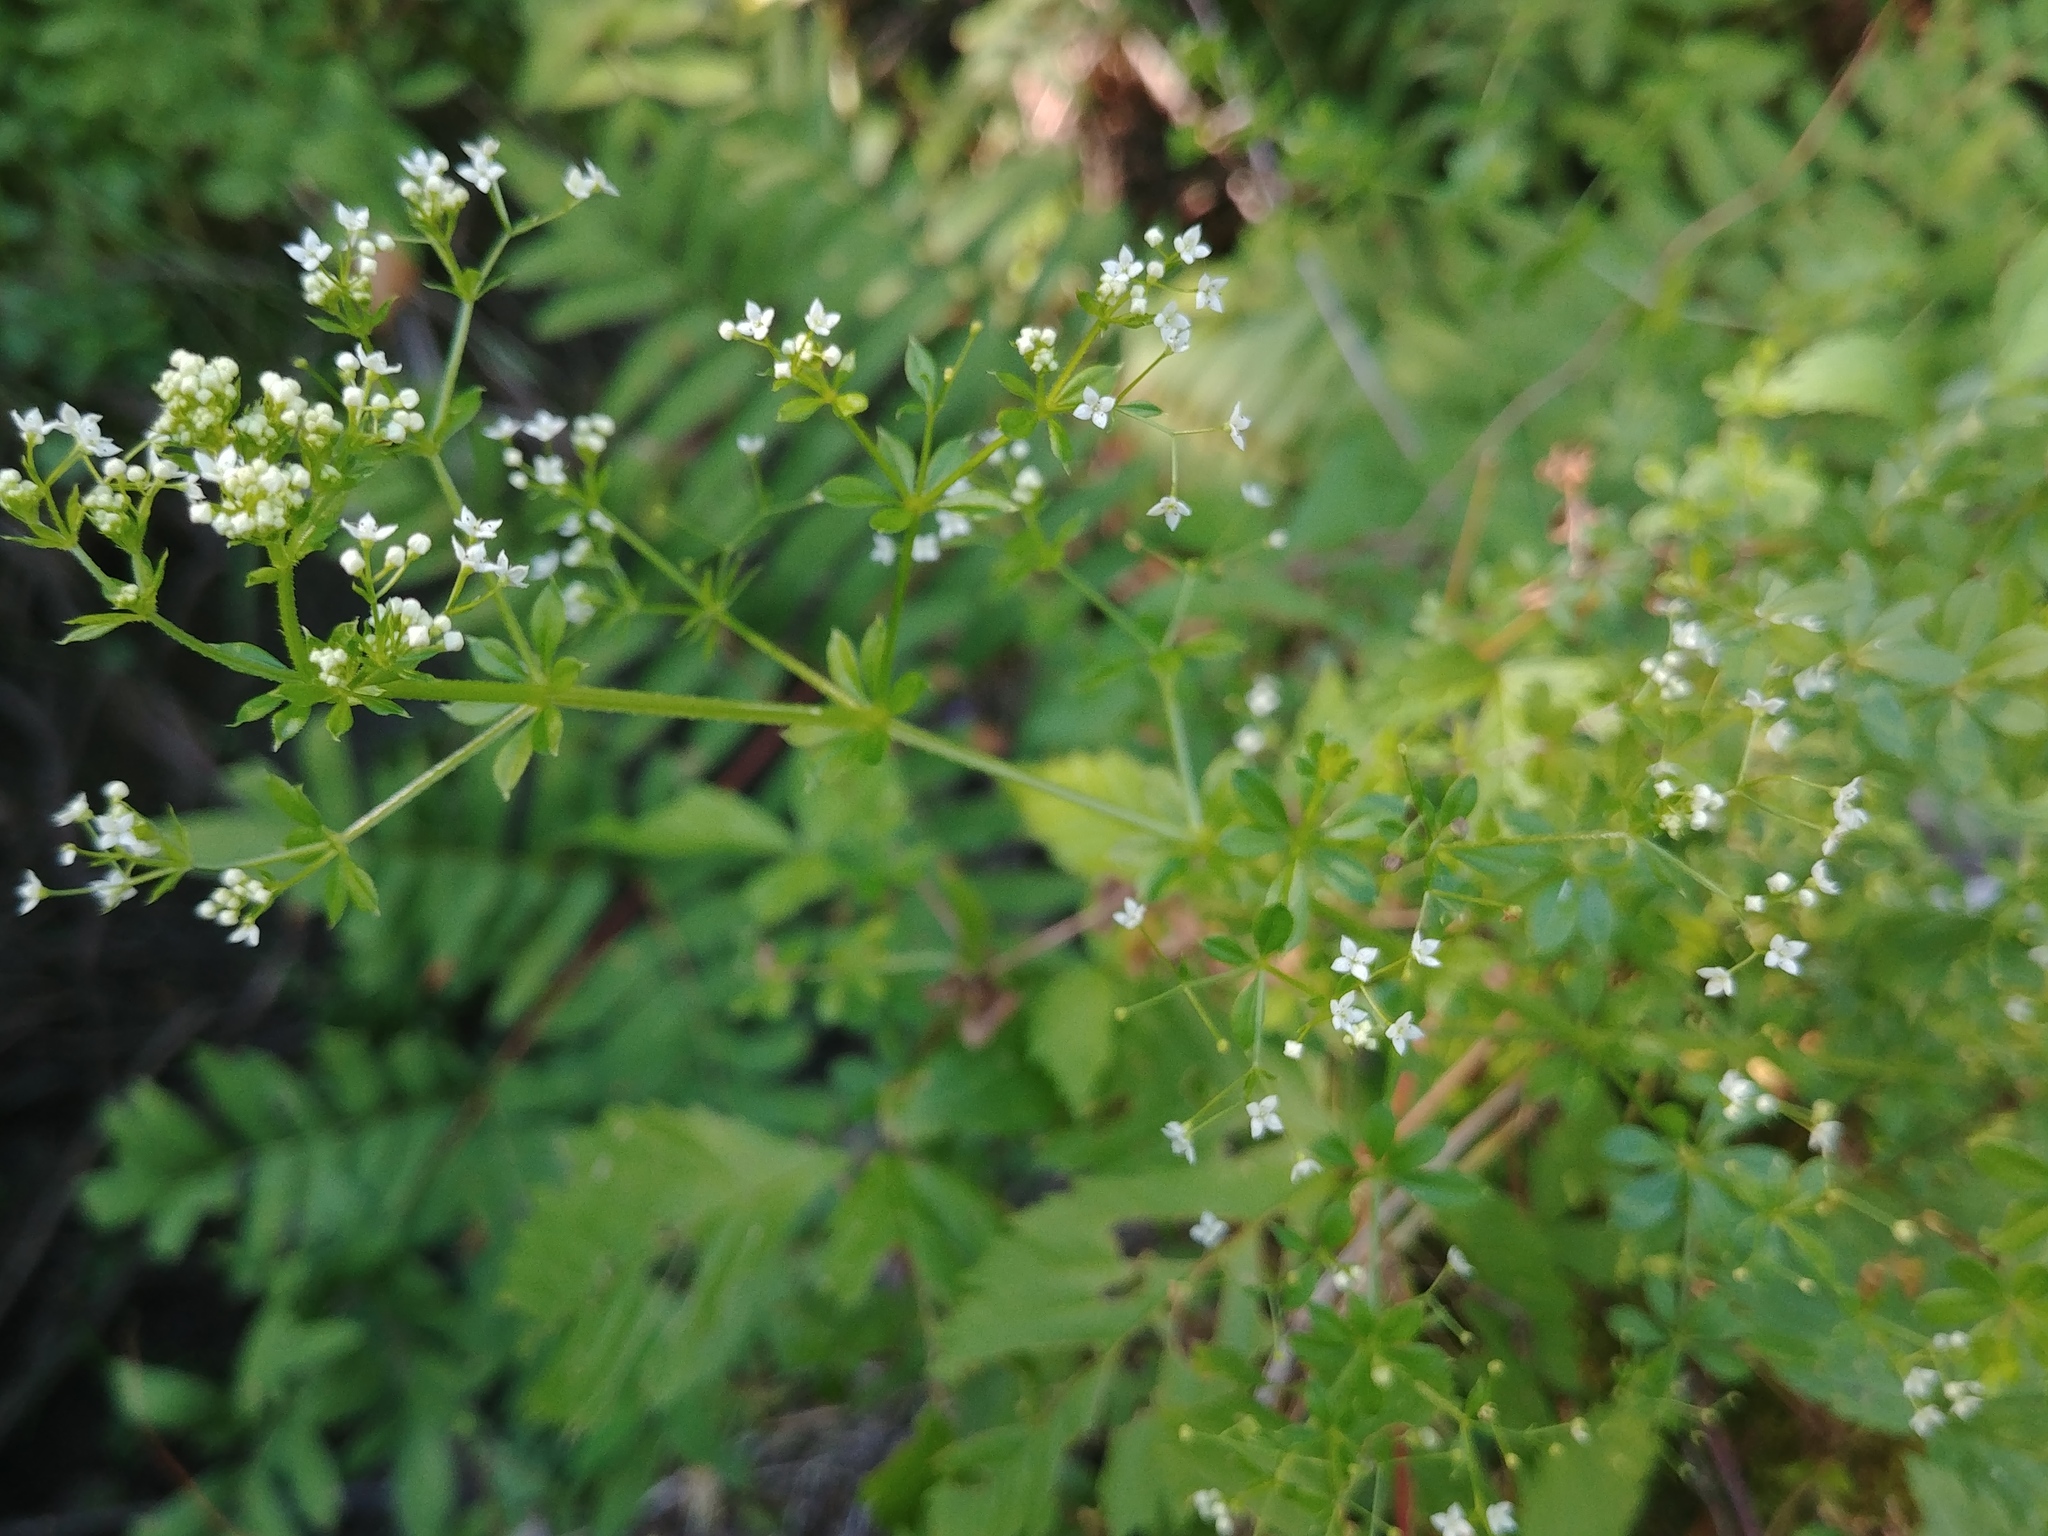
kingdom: Plantae
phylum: Tracheophyta
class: Magnoliopsida
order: Gentianales
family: Rubiaceae
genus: Galium
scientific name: Galium asprellum
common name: Rough bedstraw
